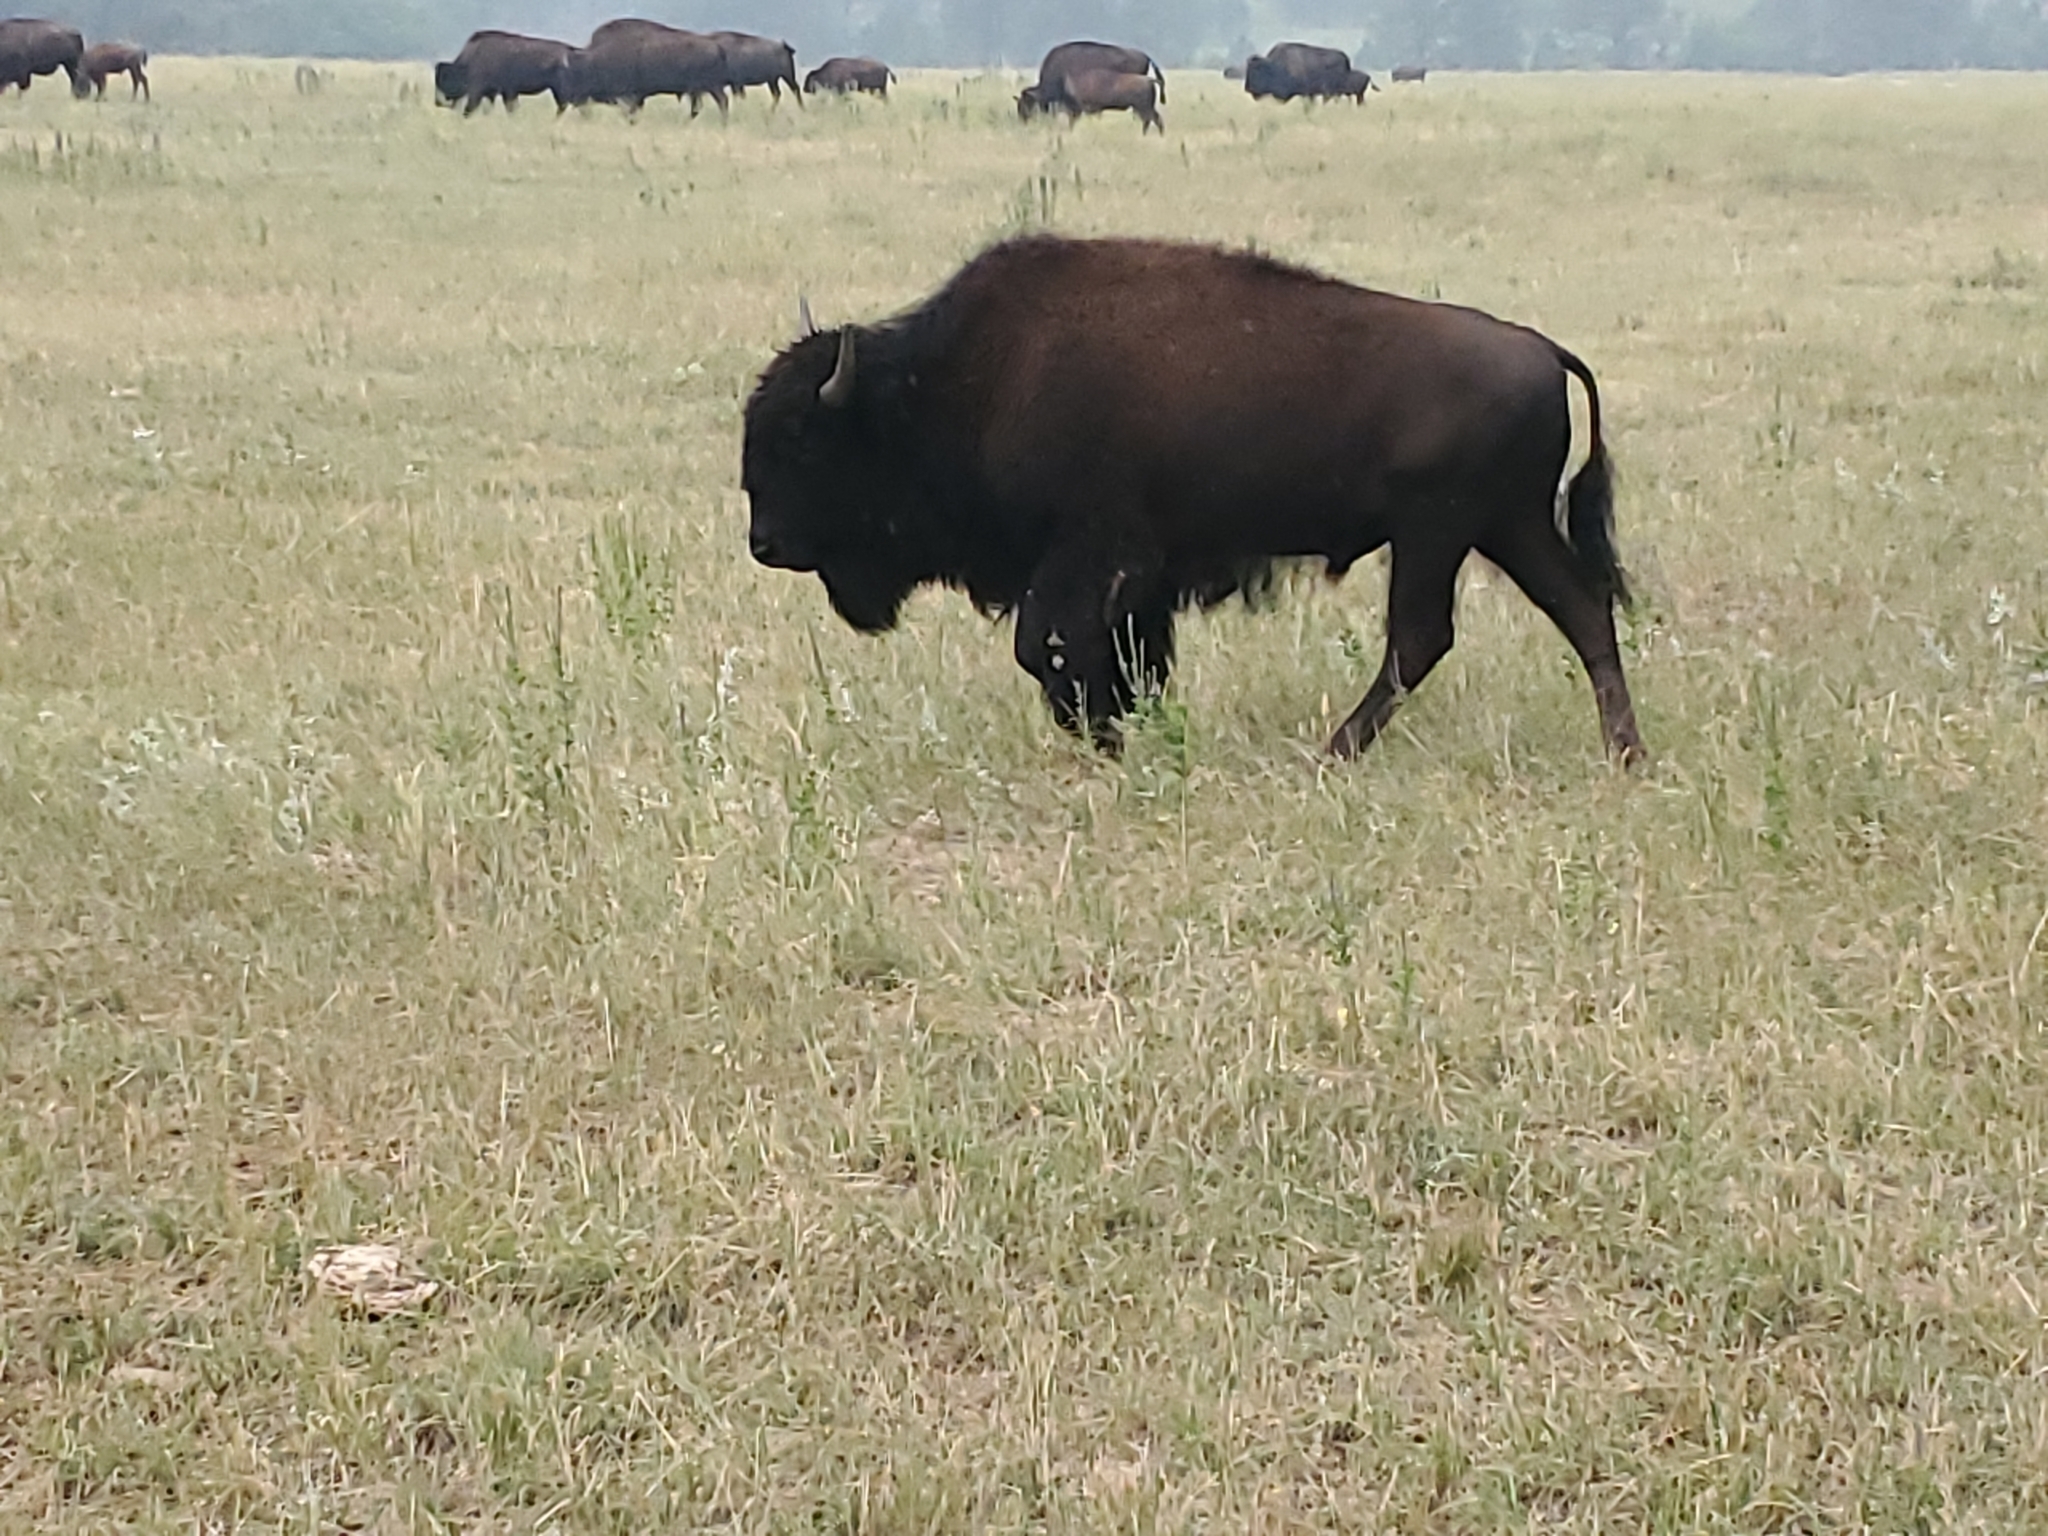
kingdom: Animalia
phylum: Chordata
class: Mammalia
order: Artiodactyla
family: Bovidae
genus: Bison
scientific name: Bison bison
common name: American bison
